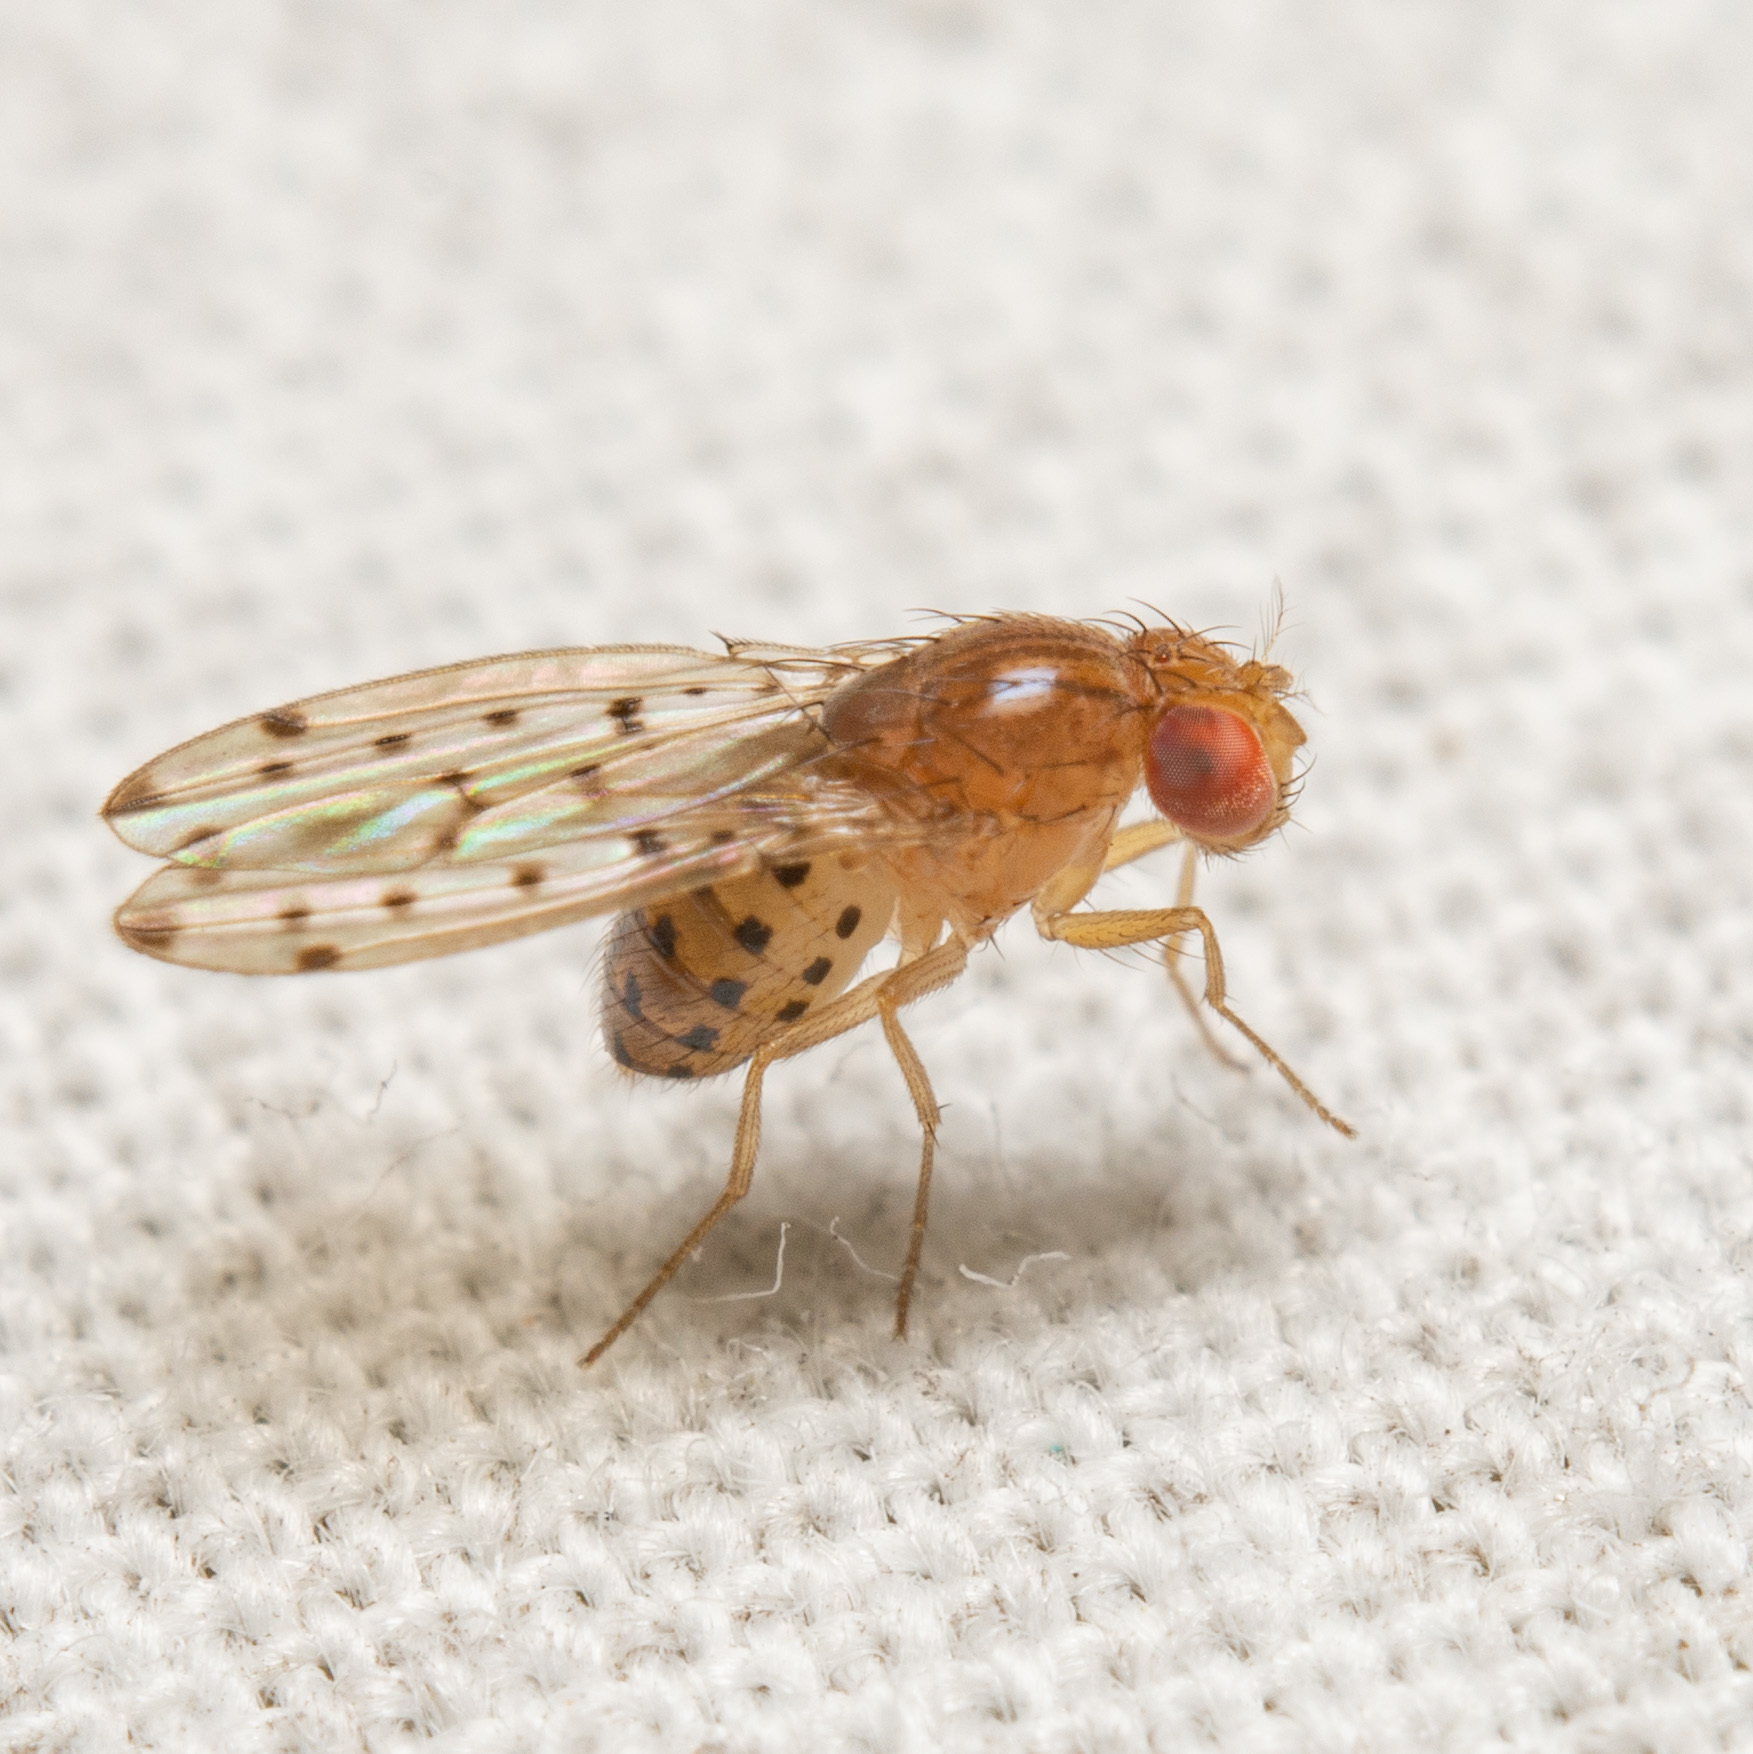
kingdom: Animalia
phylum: Arthropoda
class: Insecta
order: Diptera
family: Drosophilidae
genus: Drosophila
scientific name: Drosophila guttifera
